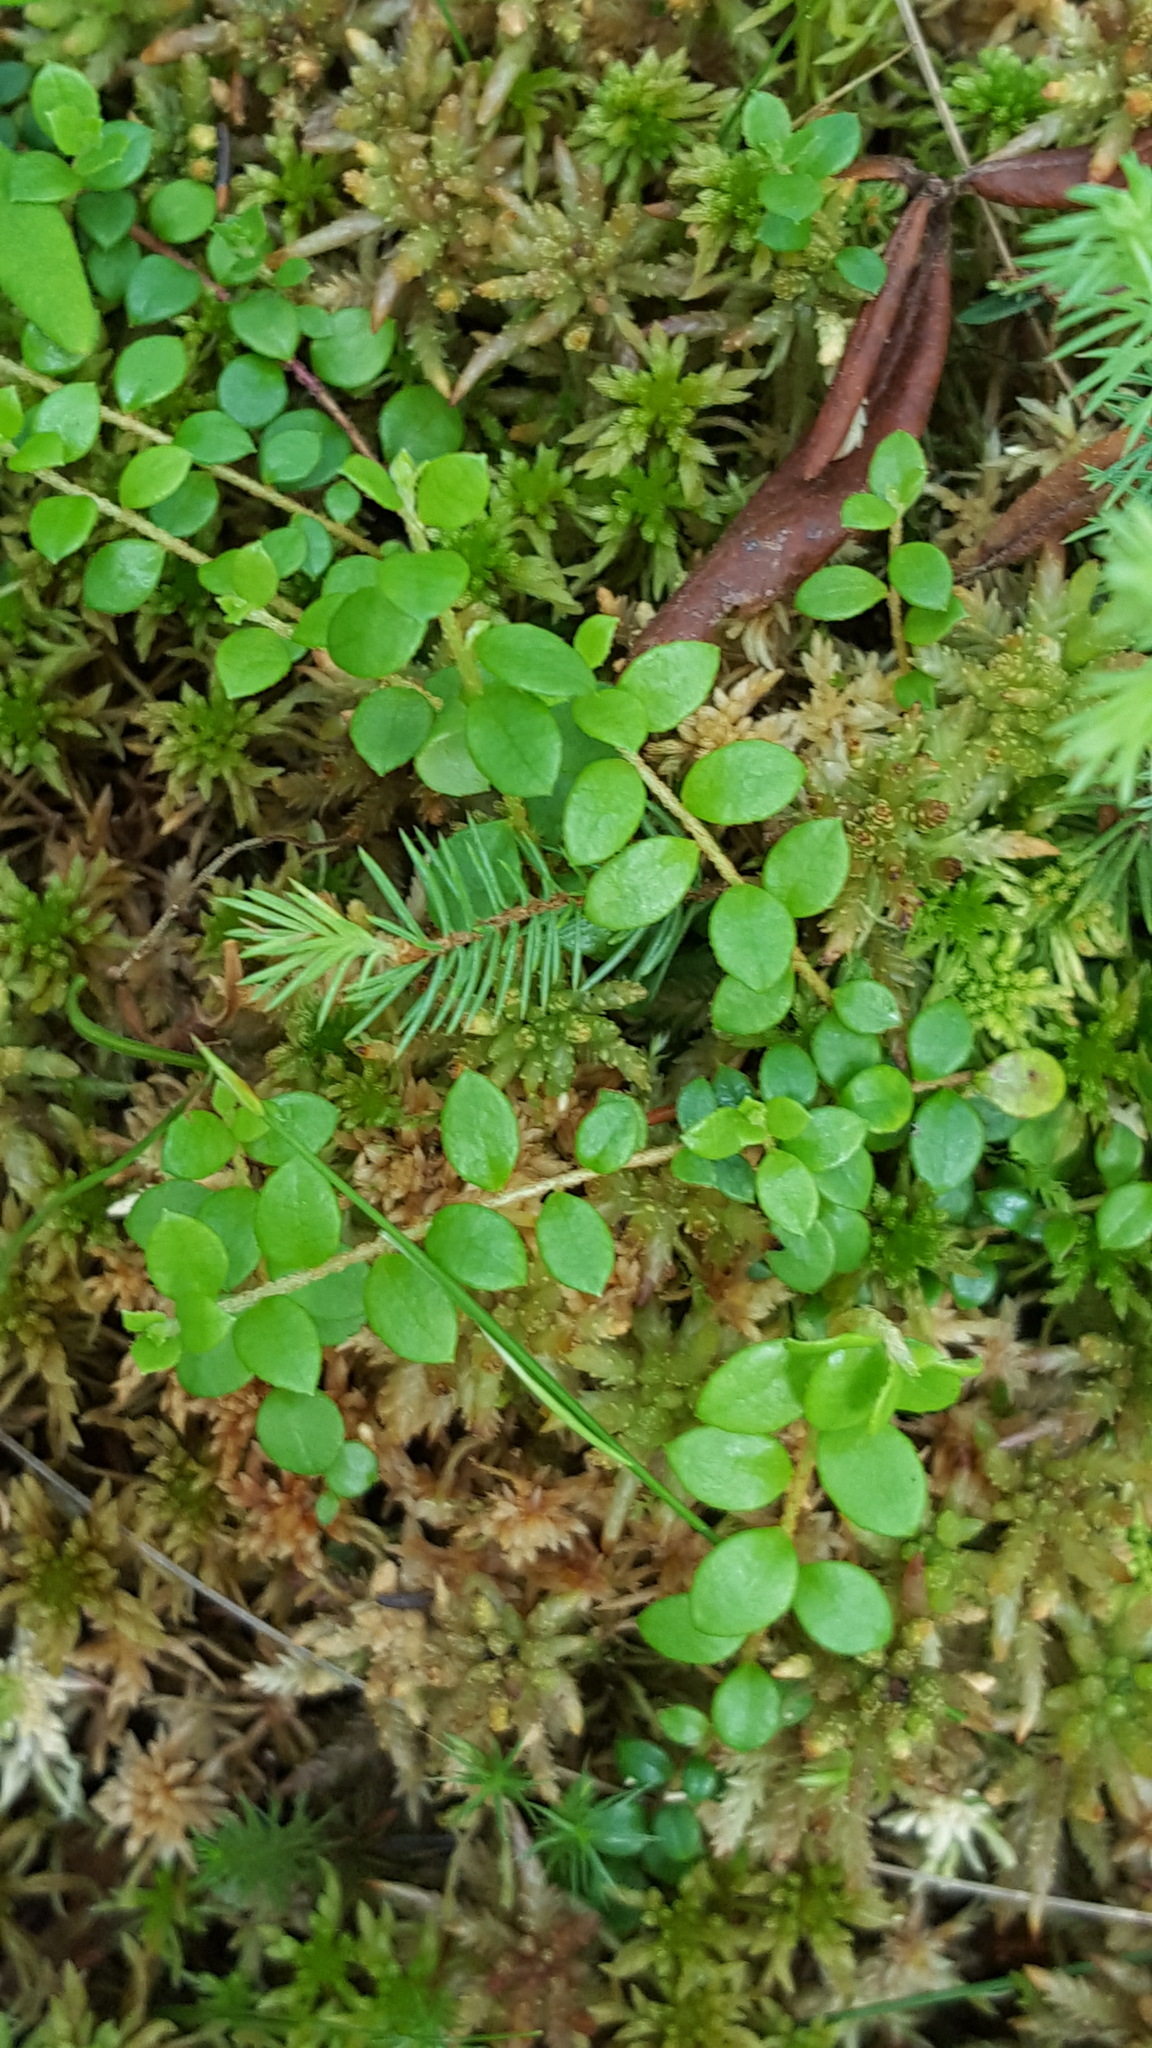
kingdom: Plantae
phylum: Tracheophyta
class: Magnoliopsida
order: Ericales
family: Ericaceae
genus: Gaultheria
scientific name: Gaultheria hispidula
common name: Cancer wintergreen
